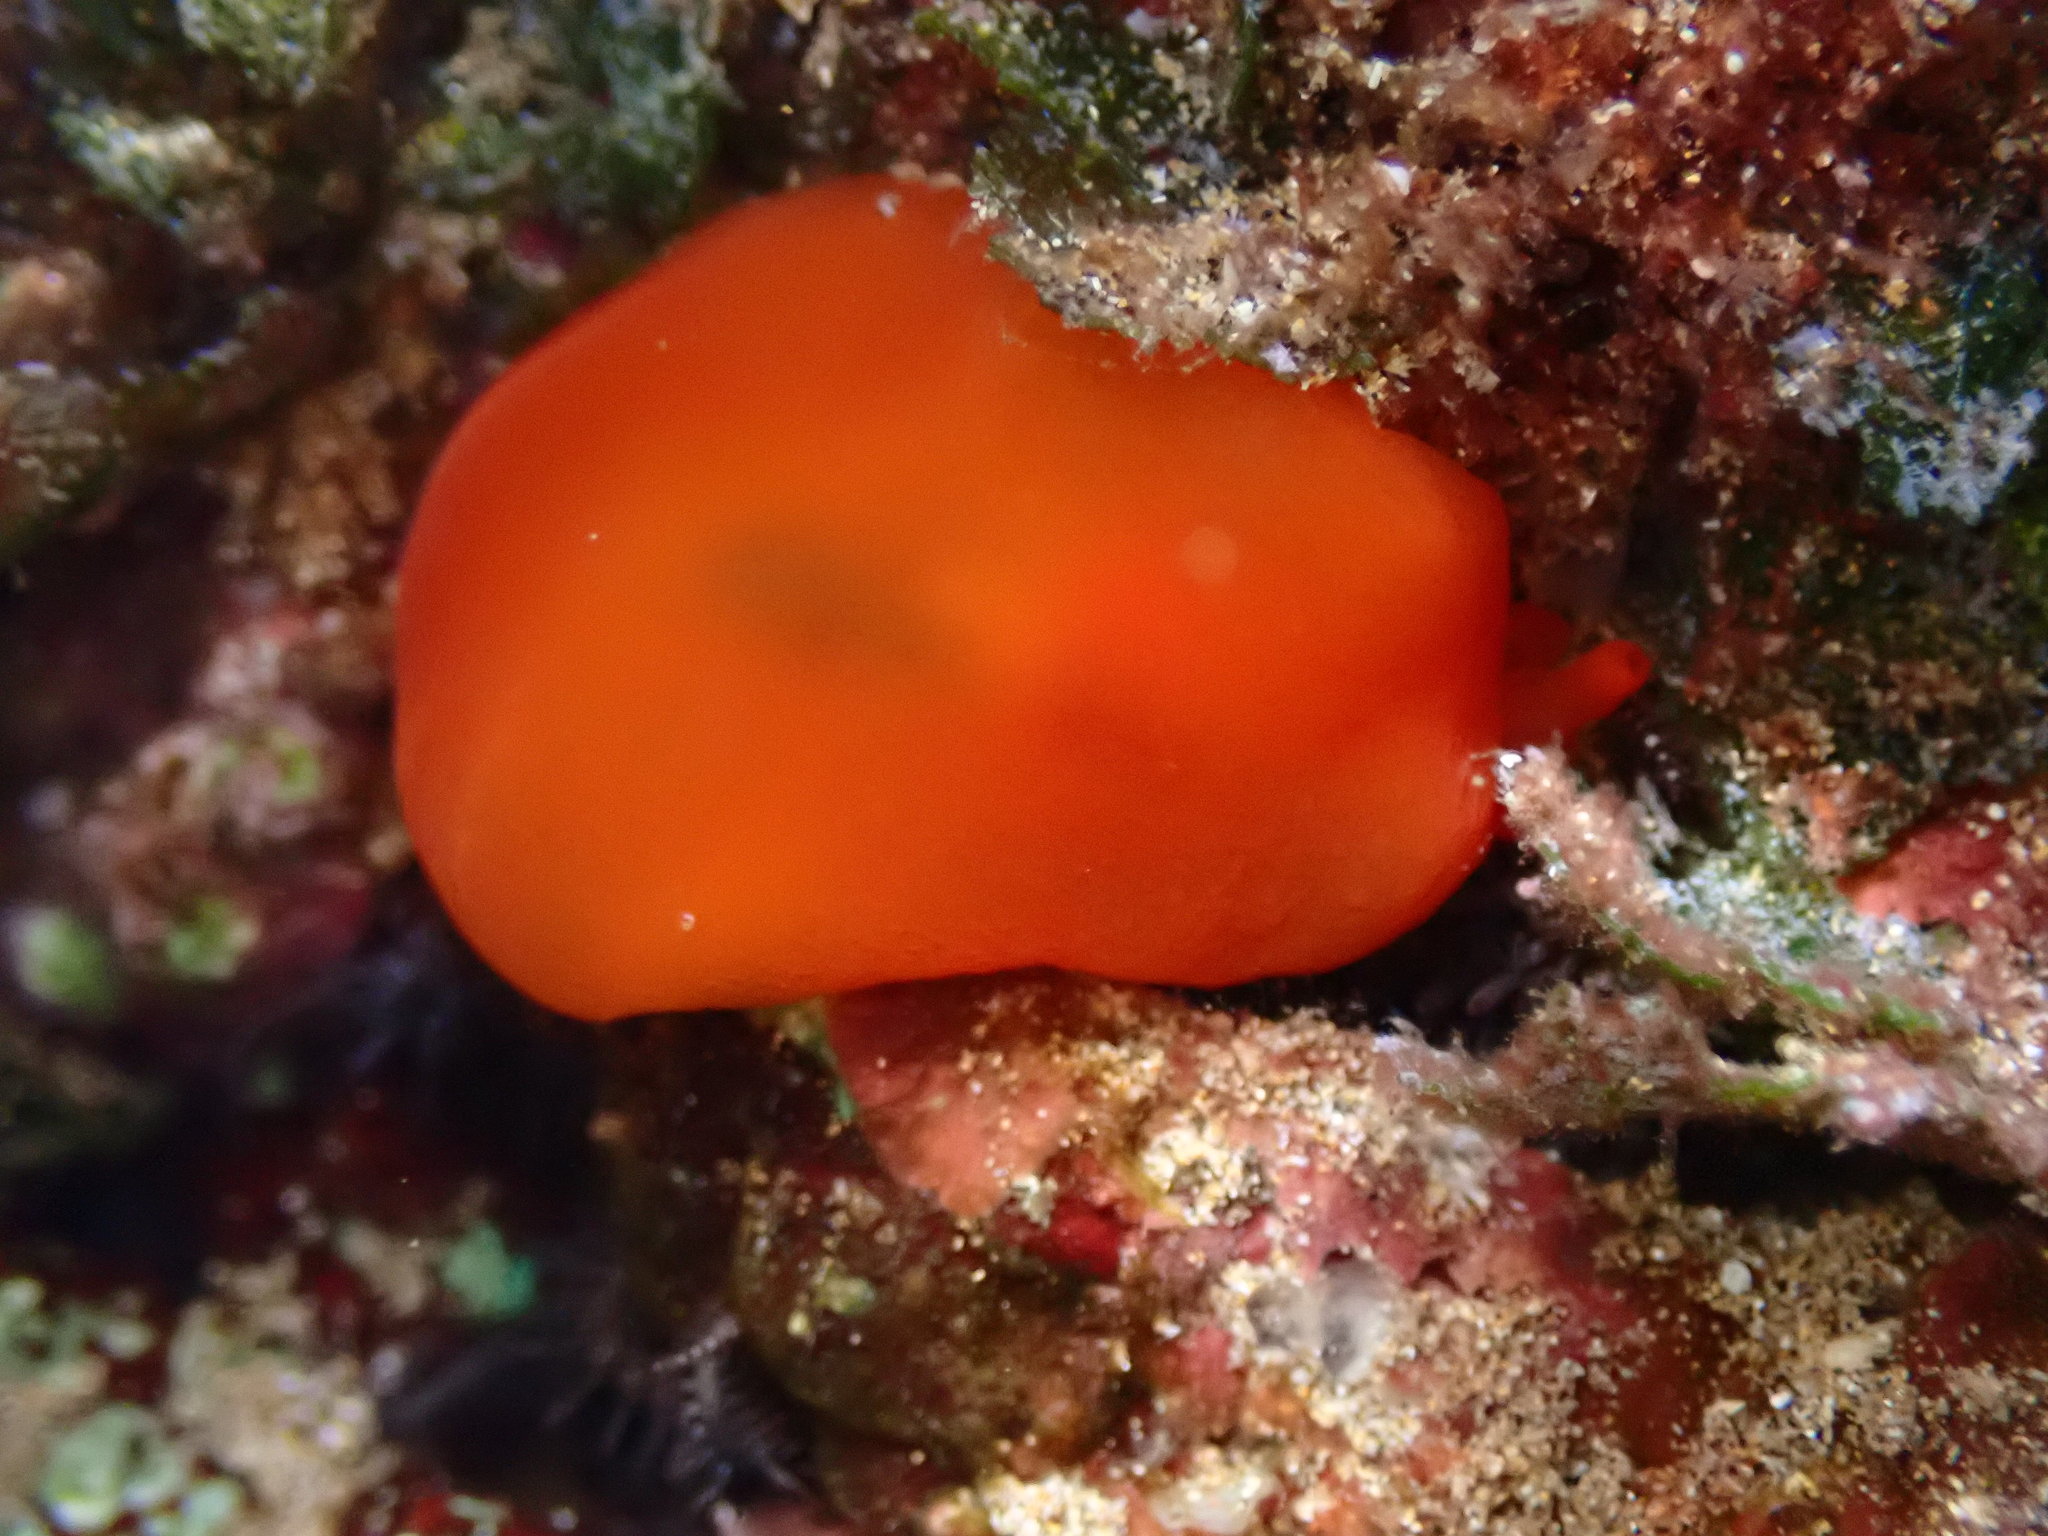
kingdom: Animalia
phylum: Mollusca
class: Gastropoda
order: Pleurobranchida
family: Pleurobranchidae
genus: Berthellina
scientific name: Berthellina delicata
